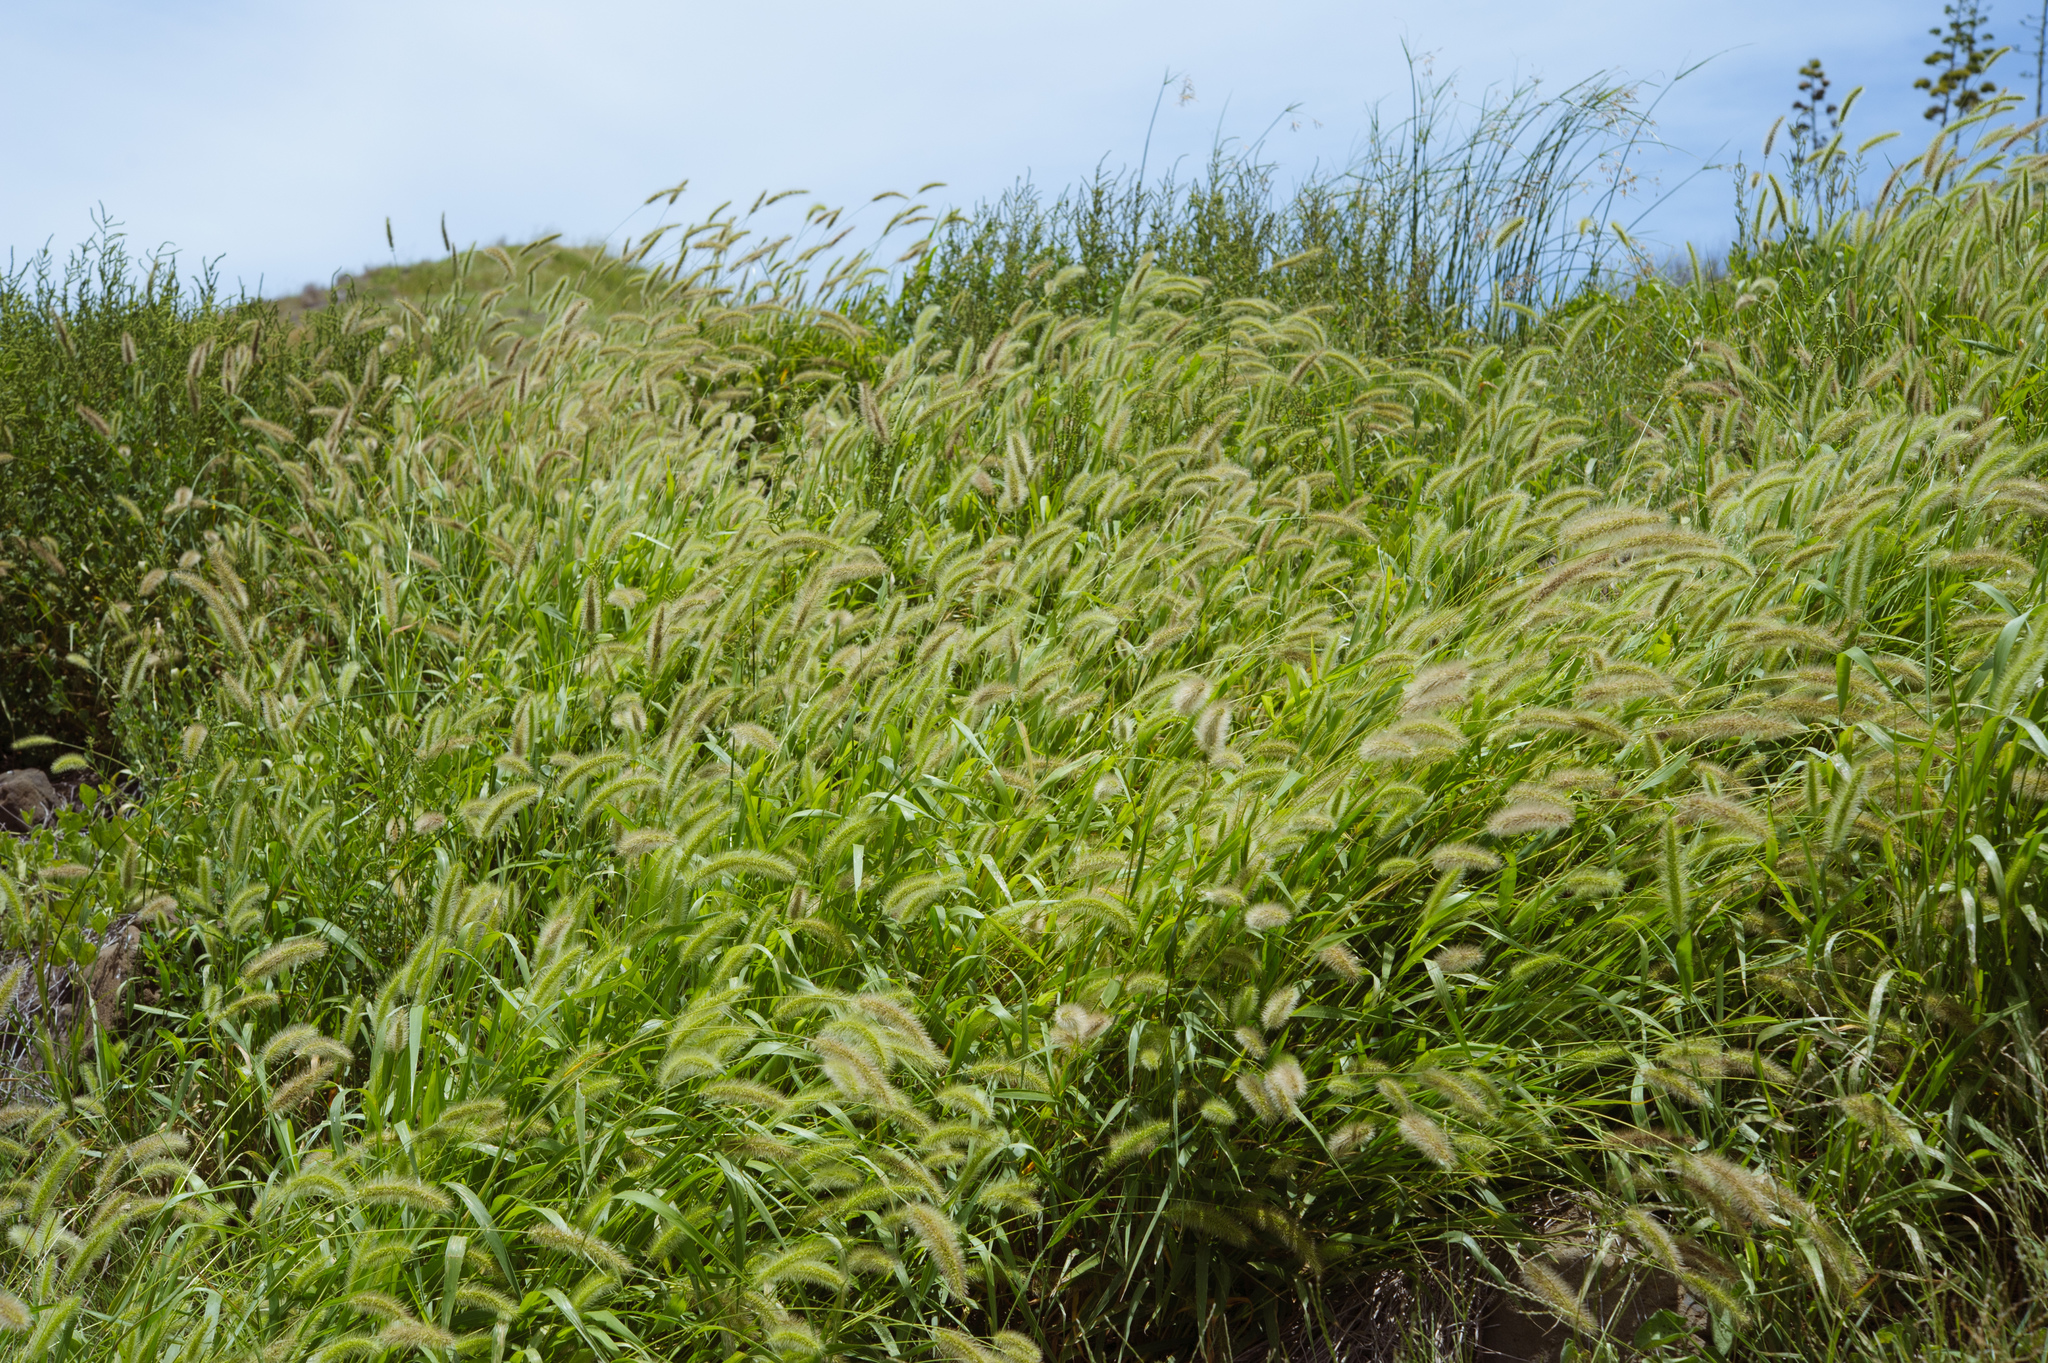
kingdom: Plantae
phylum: Tracheophyta
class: Liliopsida
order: Poales
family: Poaceae
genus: Setaria
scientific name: Setaria viridis
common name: Green bristlegrass
